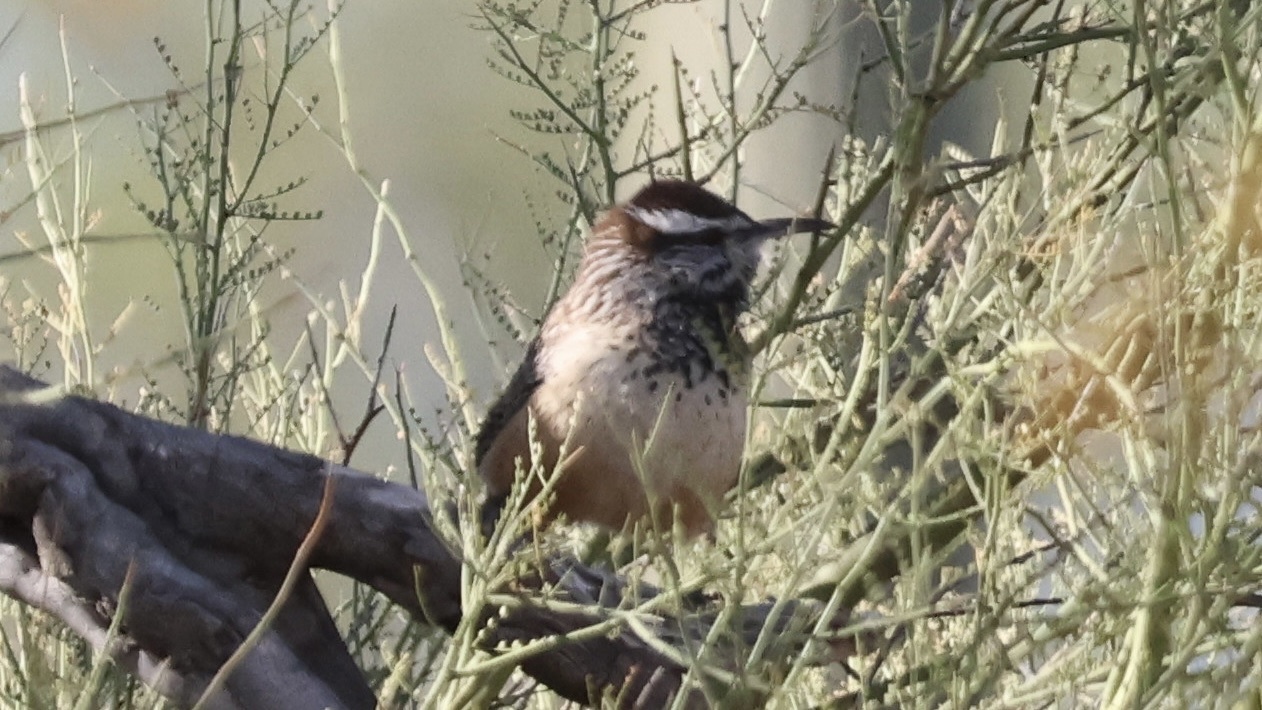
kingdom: Animalia
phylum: Chordata
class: Aves
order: Passeriformes
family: Troglodytidae
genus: Campylorhynchus
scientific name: Campylorhynchus brunneicapillus
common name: Cactus wren
